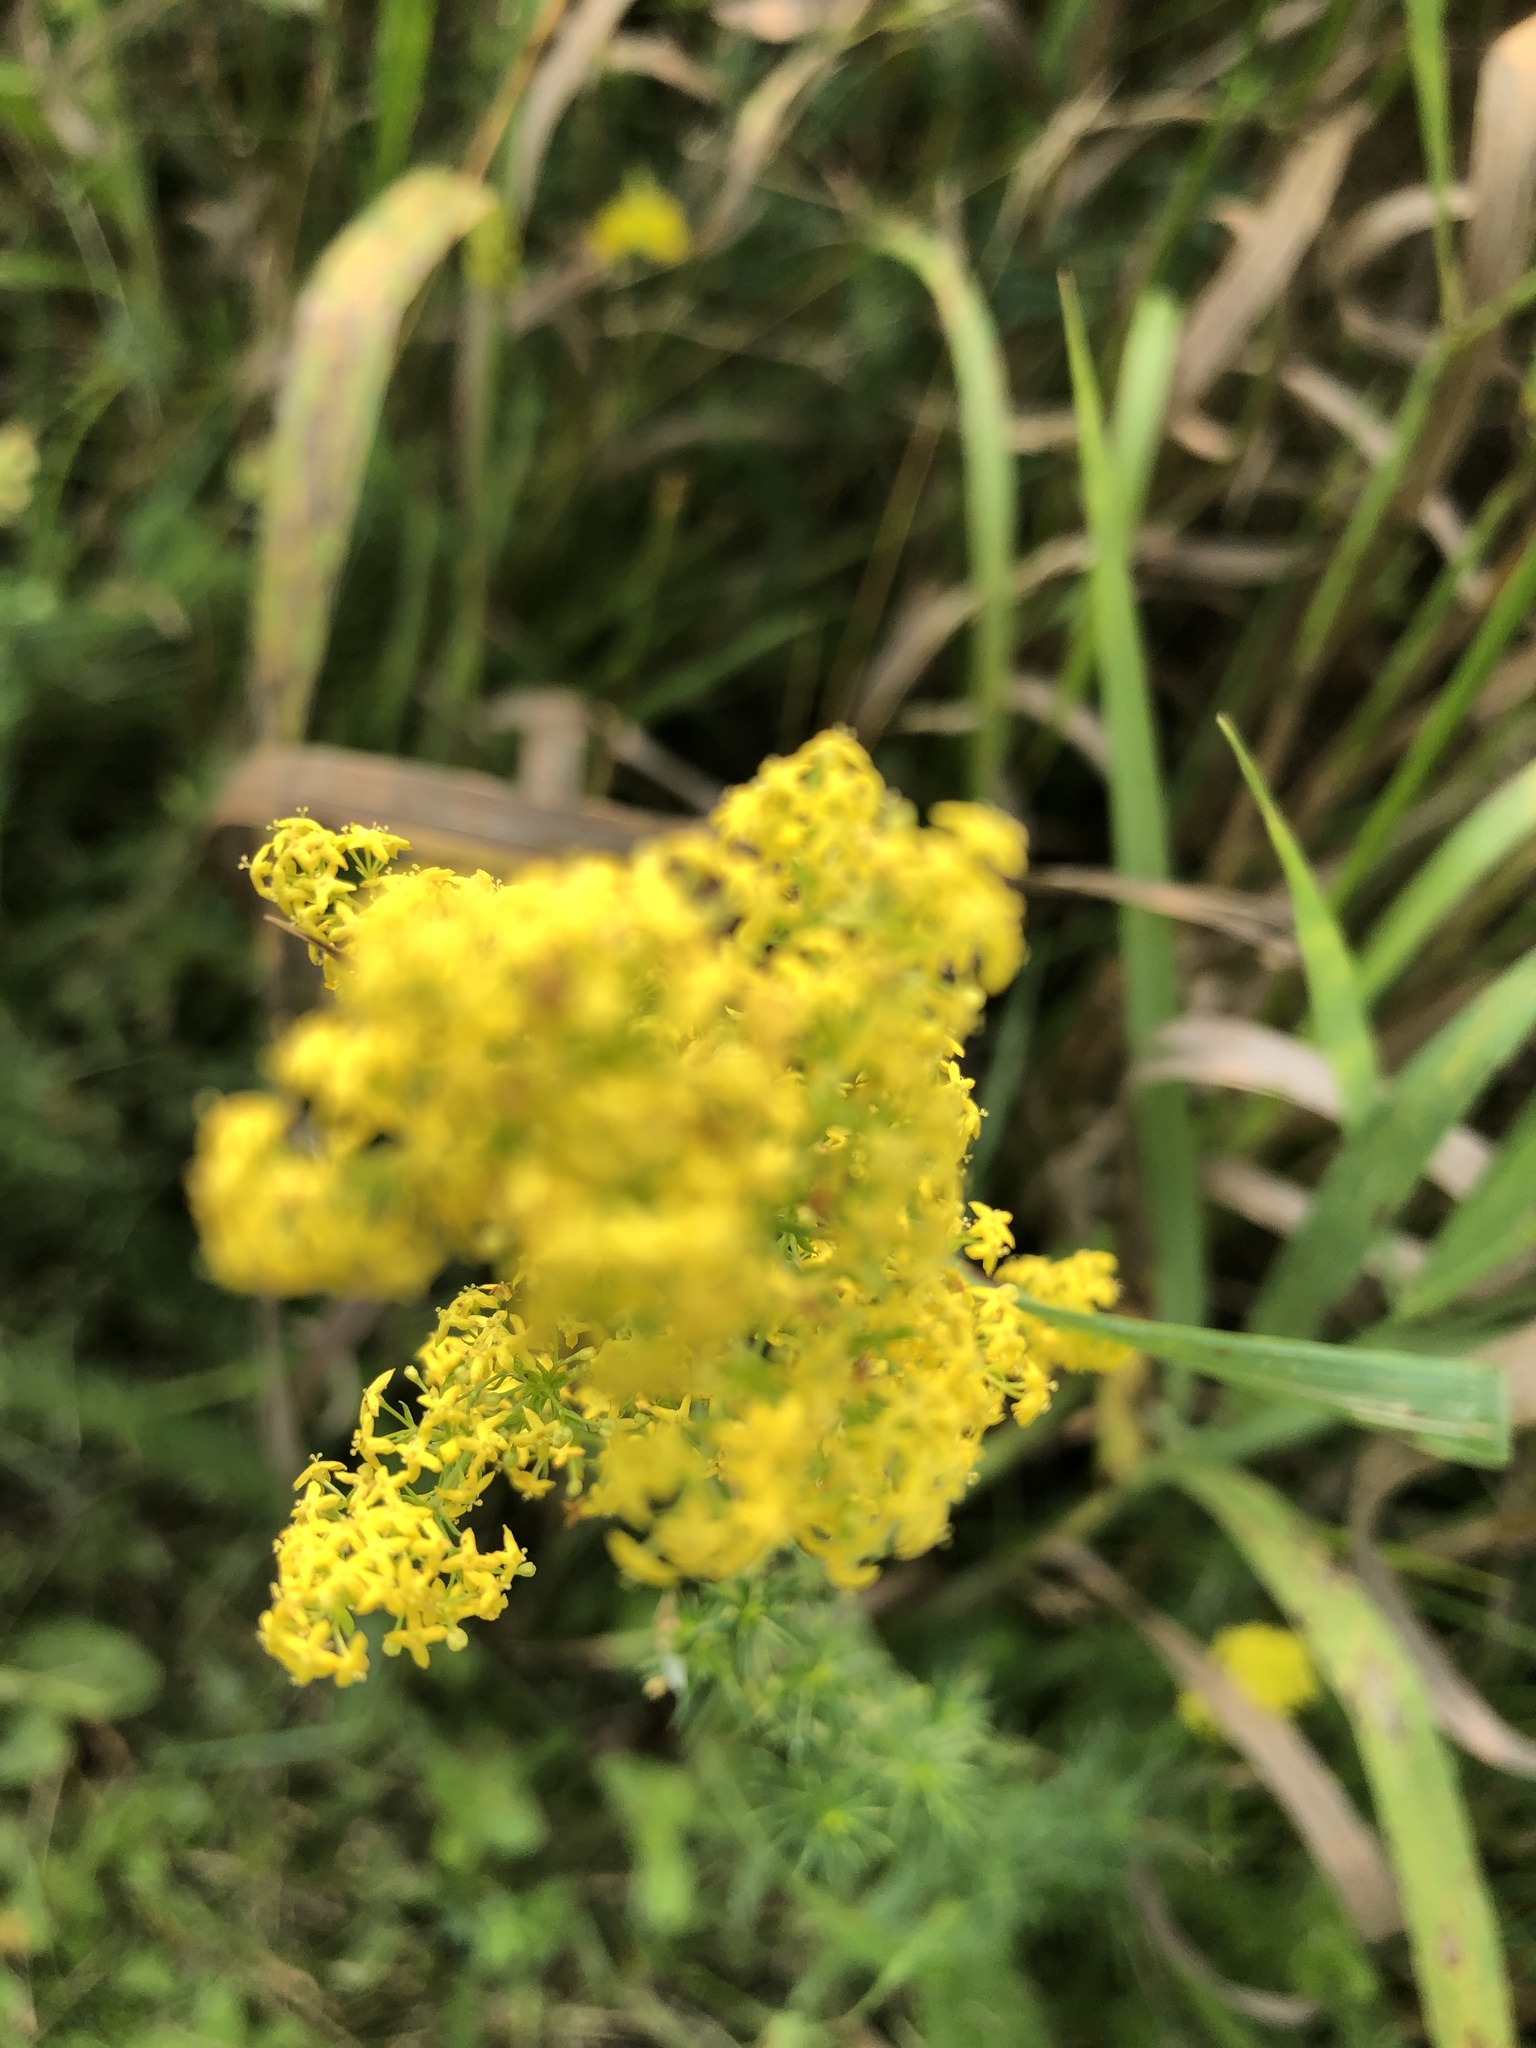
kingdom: Plantae
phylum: Tracheophyta
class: Magnoliopsida
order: Gentianales
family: Rubiaceae
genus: Galium
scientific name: Galium verum
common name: Lady's bedstraw
